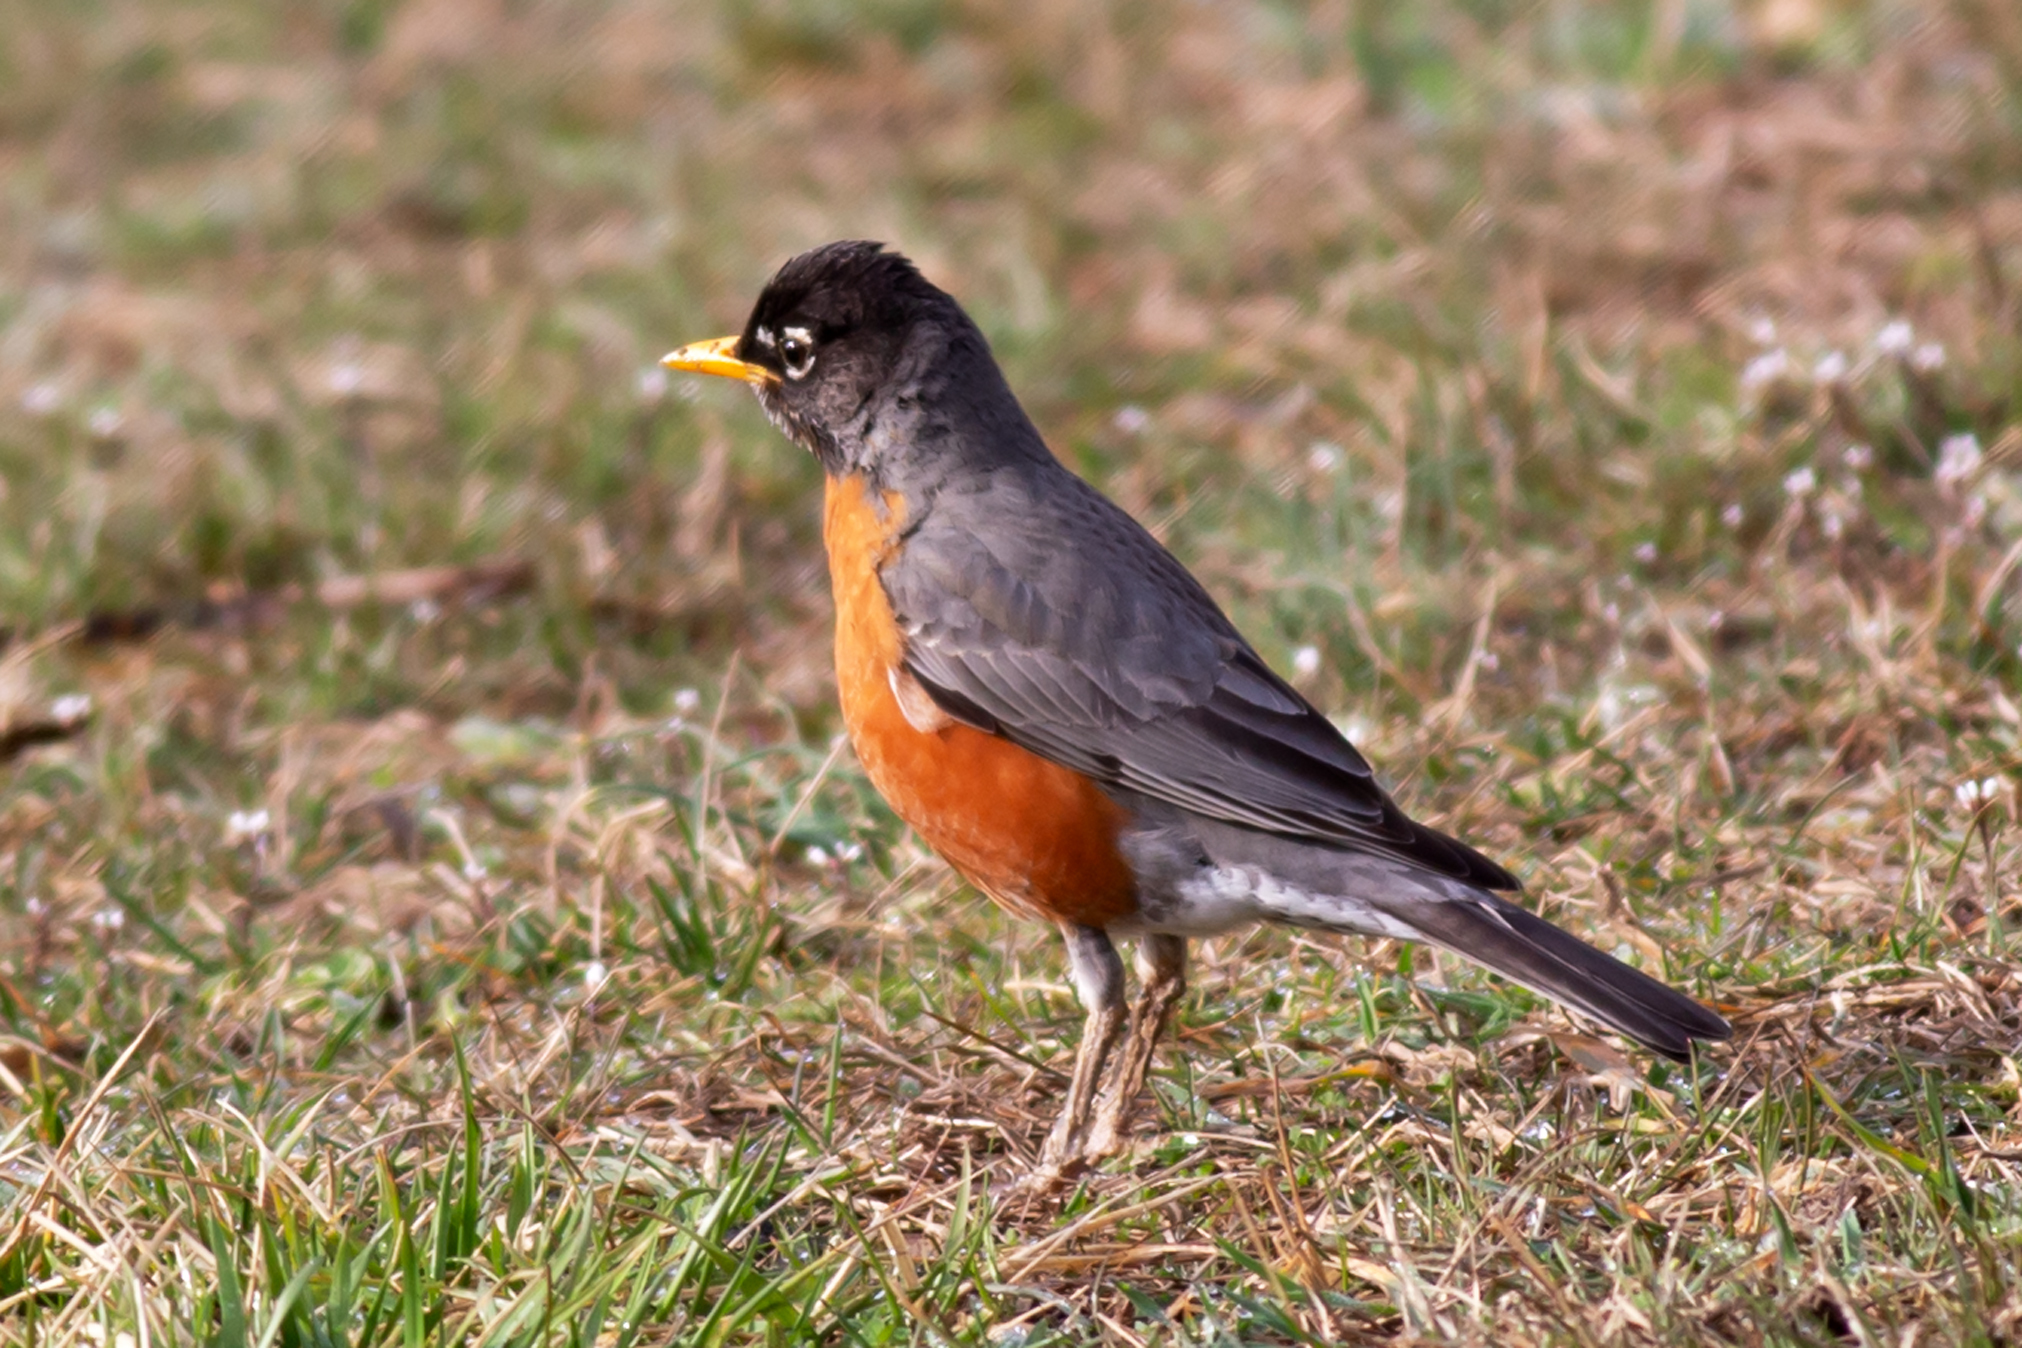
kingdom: Animalia
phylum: Chordata
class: Aves
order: Passeriformes
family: Turdidae
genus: Turdus
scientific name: Turdus migratorius
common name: American robin
